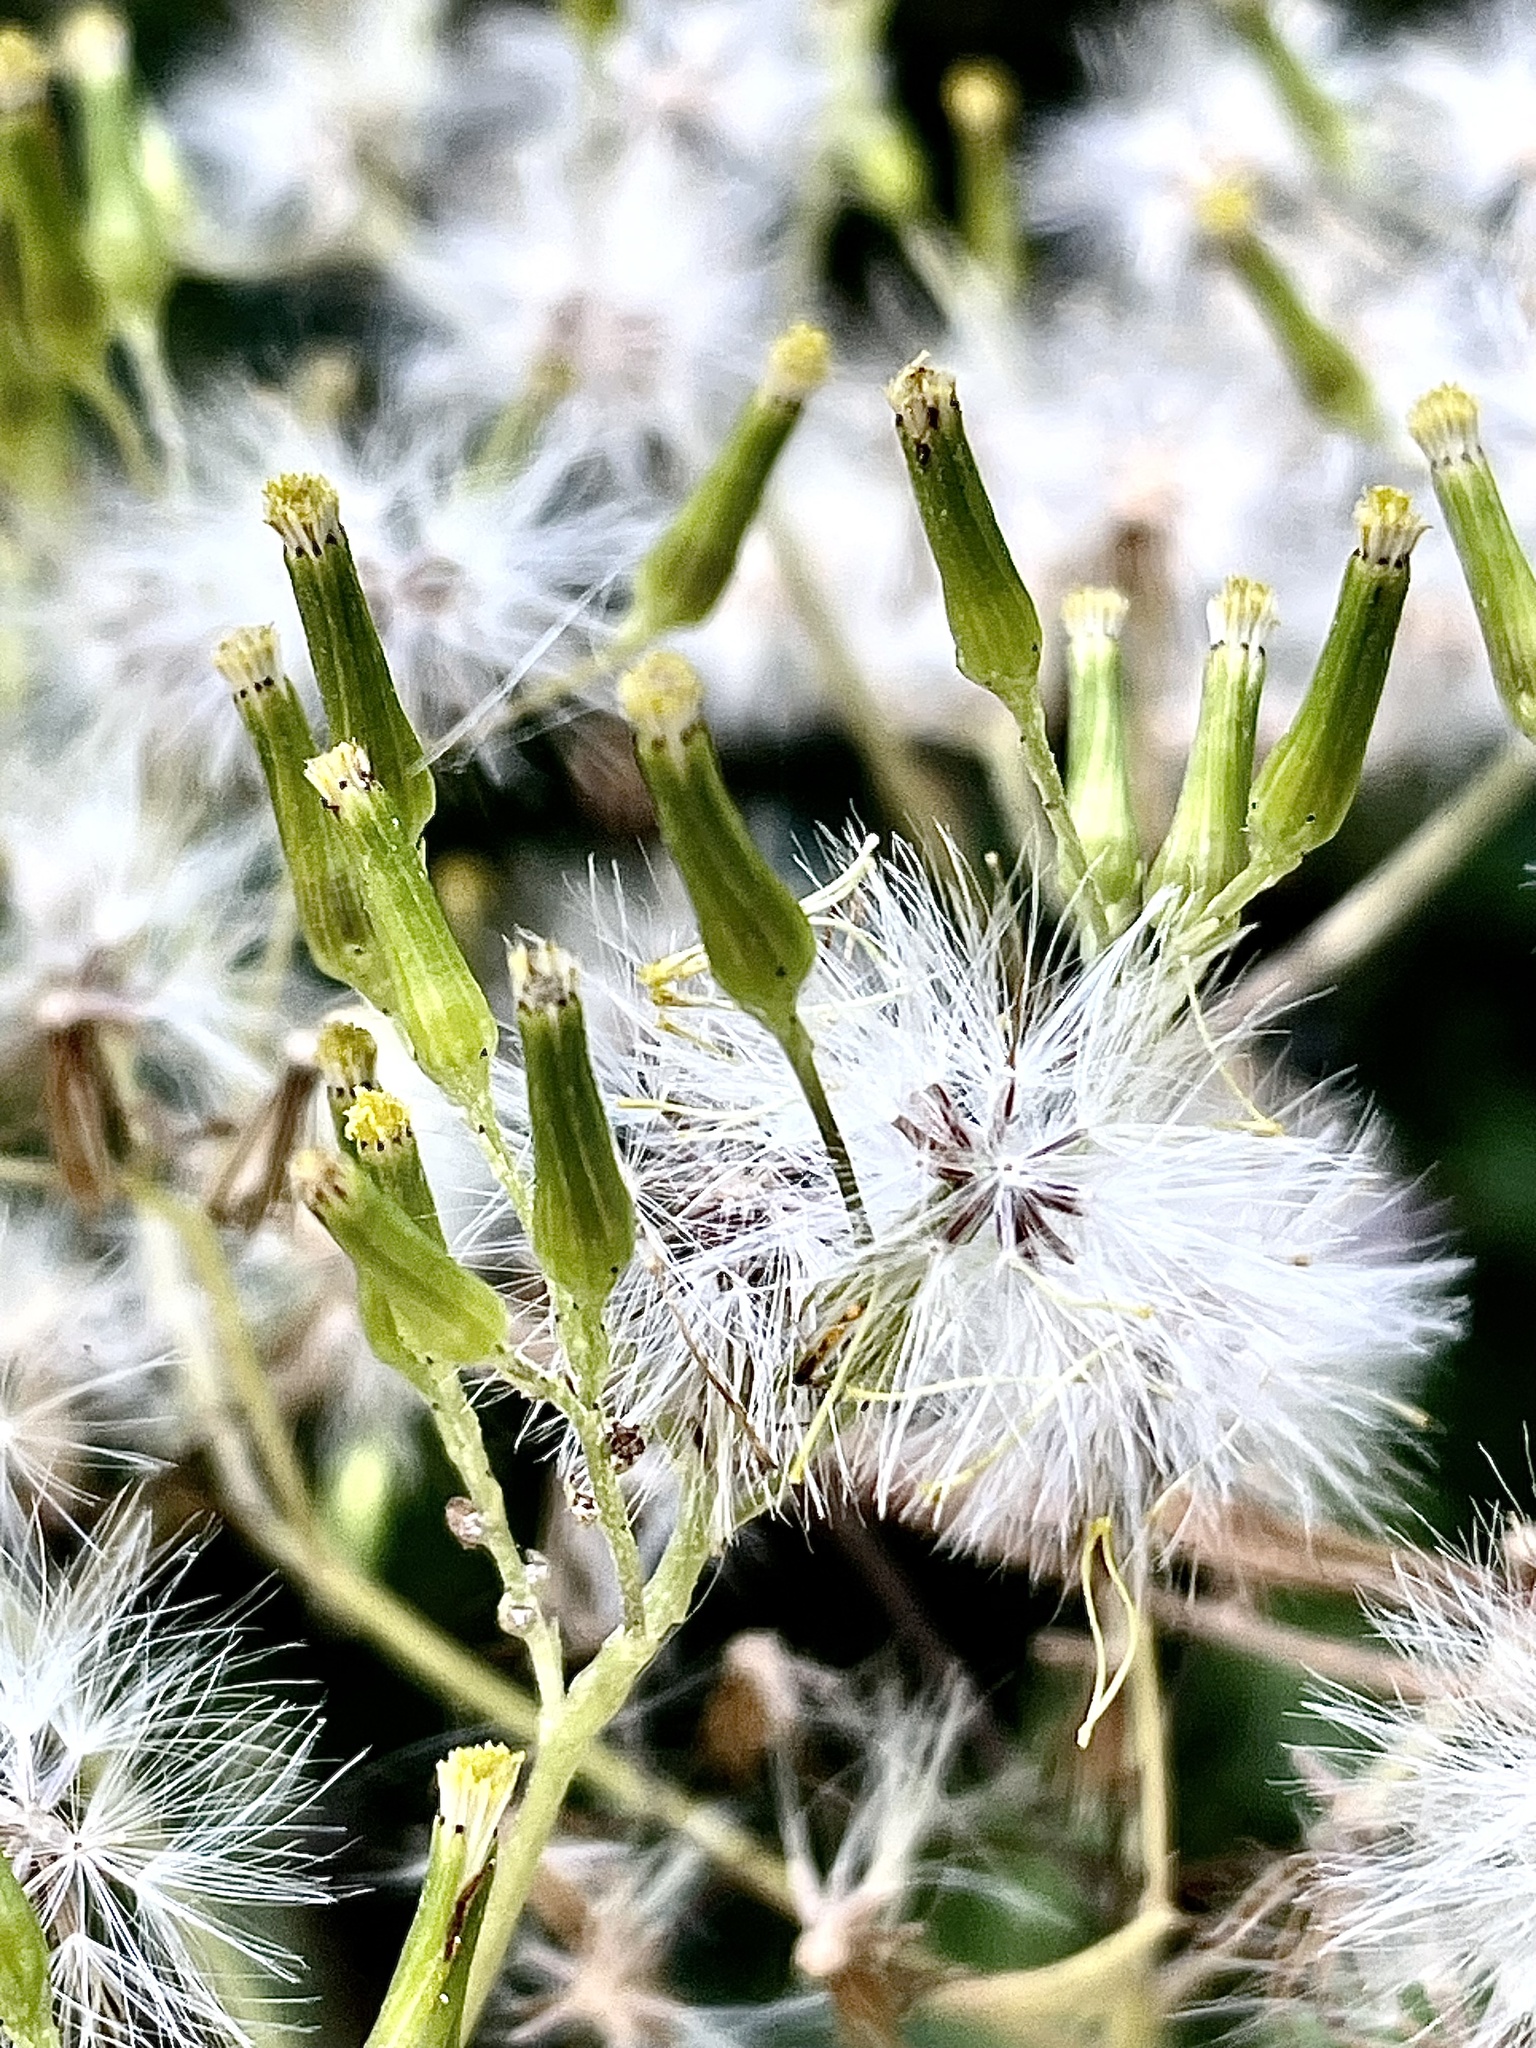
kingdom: Plantae
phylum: Tracheophyta
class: Magnoliopsida
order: Asterales
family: Asteraceae
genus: Senecio
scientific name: Senecio minimus
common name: Toothed fireweed
